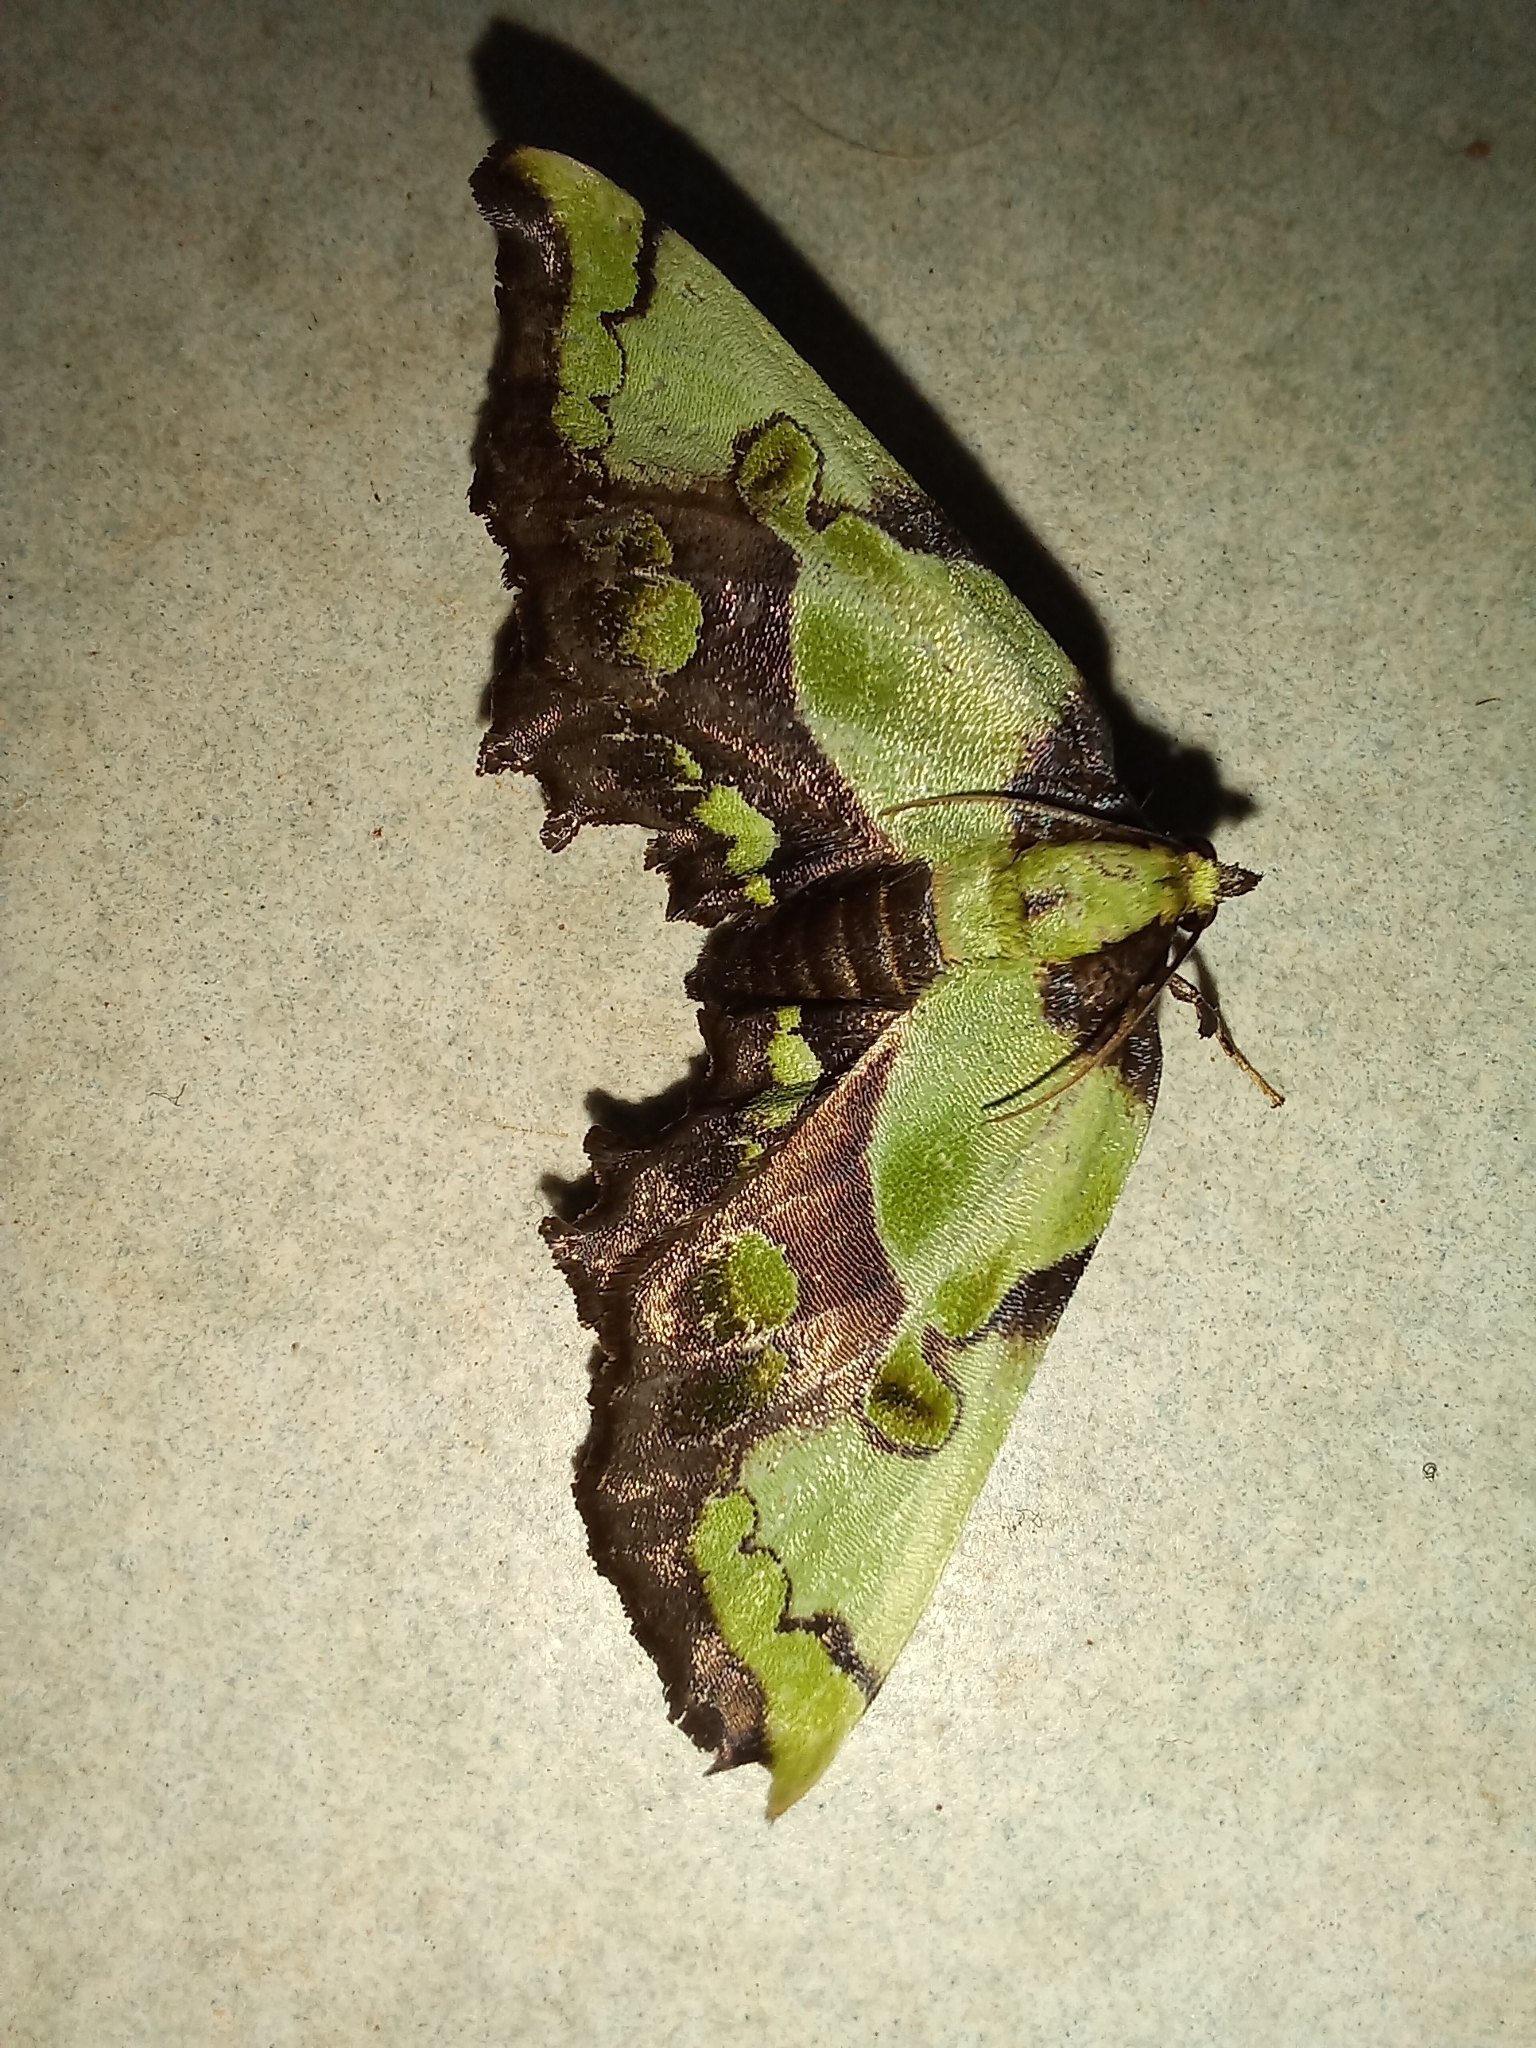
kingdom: Animalia
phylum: Arthropoda
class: Insecta
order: Lepidoptera
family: Pyralidae
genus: Mittonia
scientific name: Mittonia hampsoni
